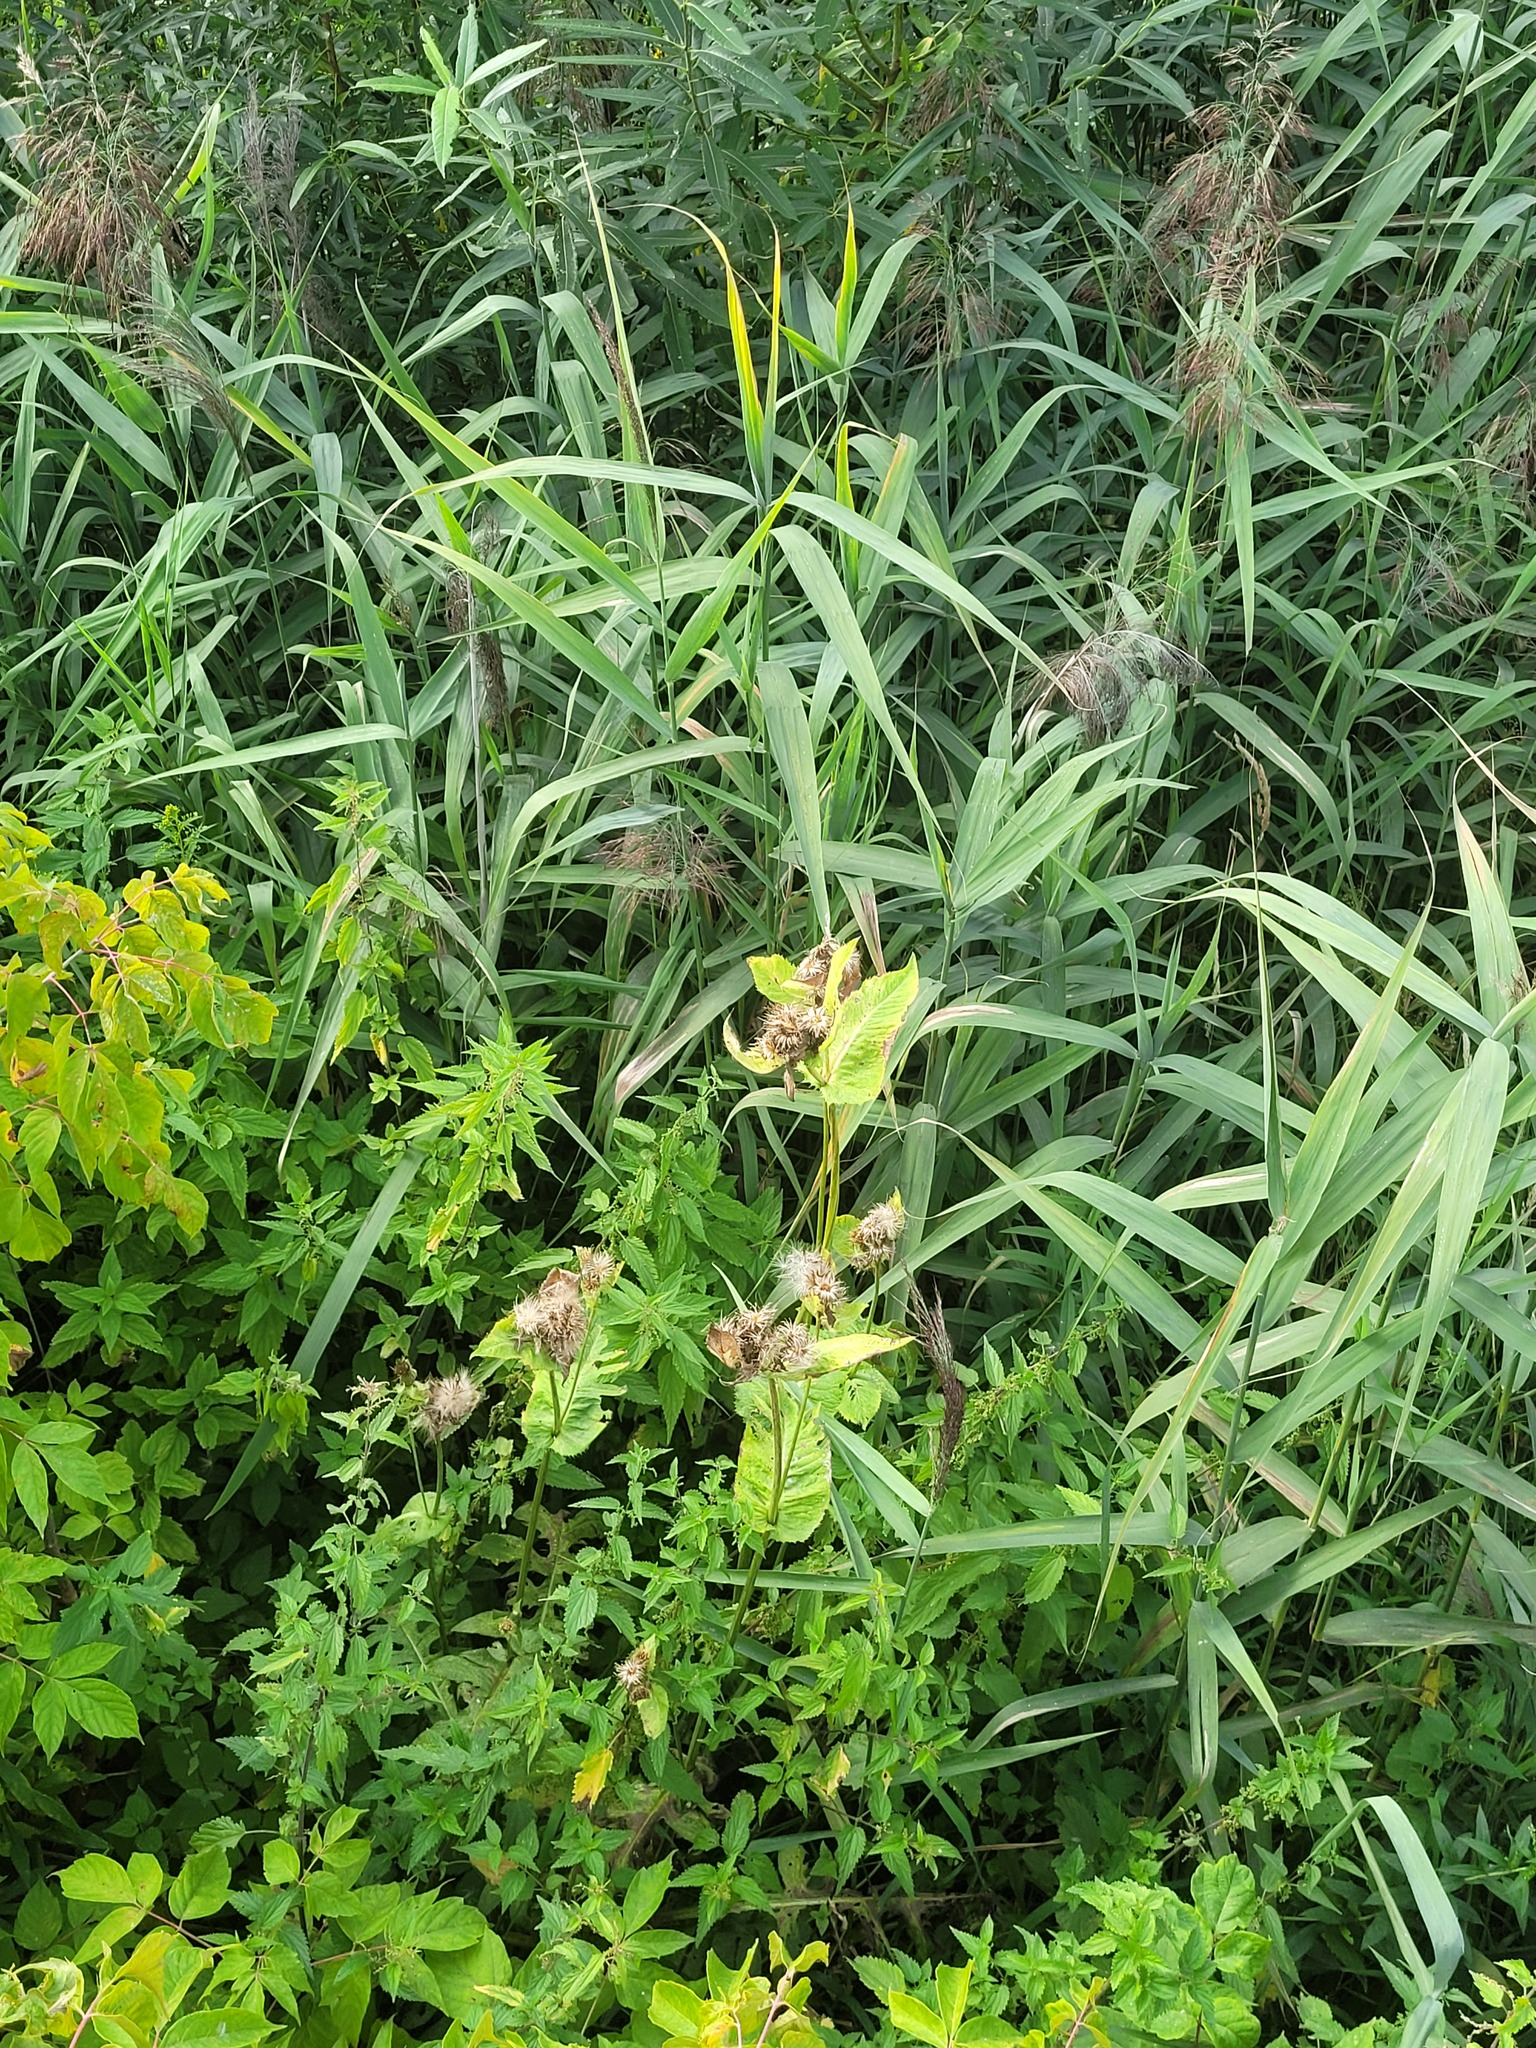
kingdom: Plantae
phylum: Tracheophyta
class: Magnoliopsida
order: Asterales
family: Asteraceae
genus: Cirsium
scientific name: Cirsium oleraceum
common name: Cabbage thistle
